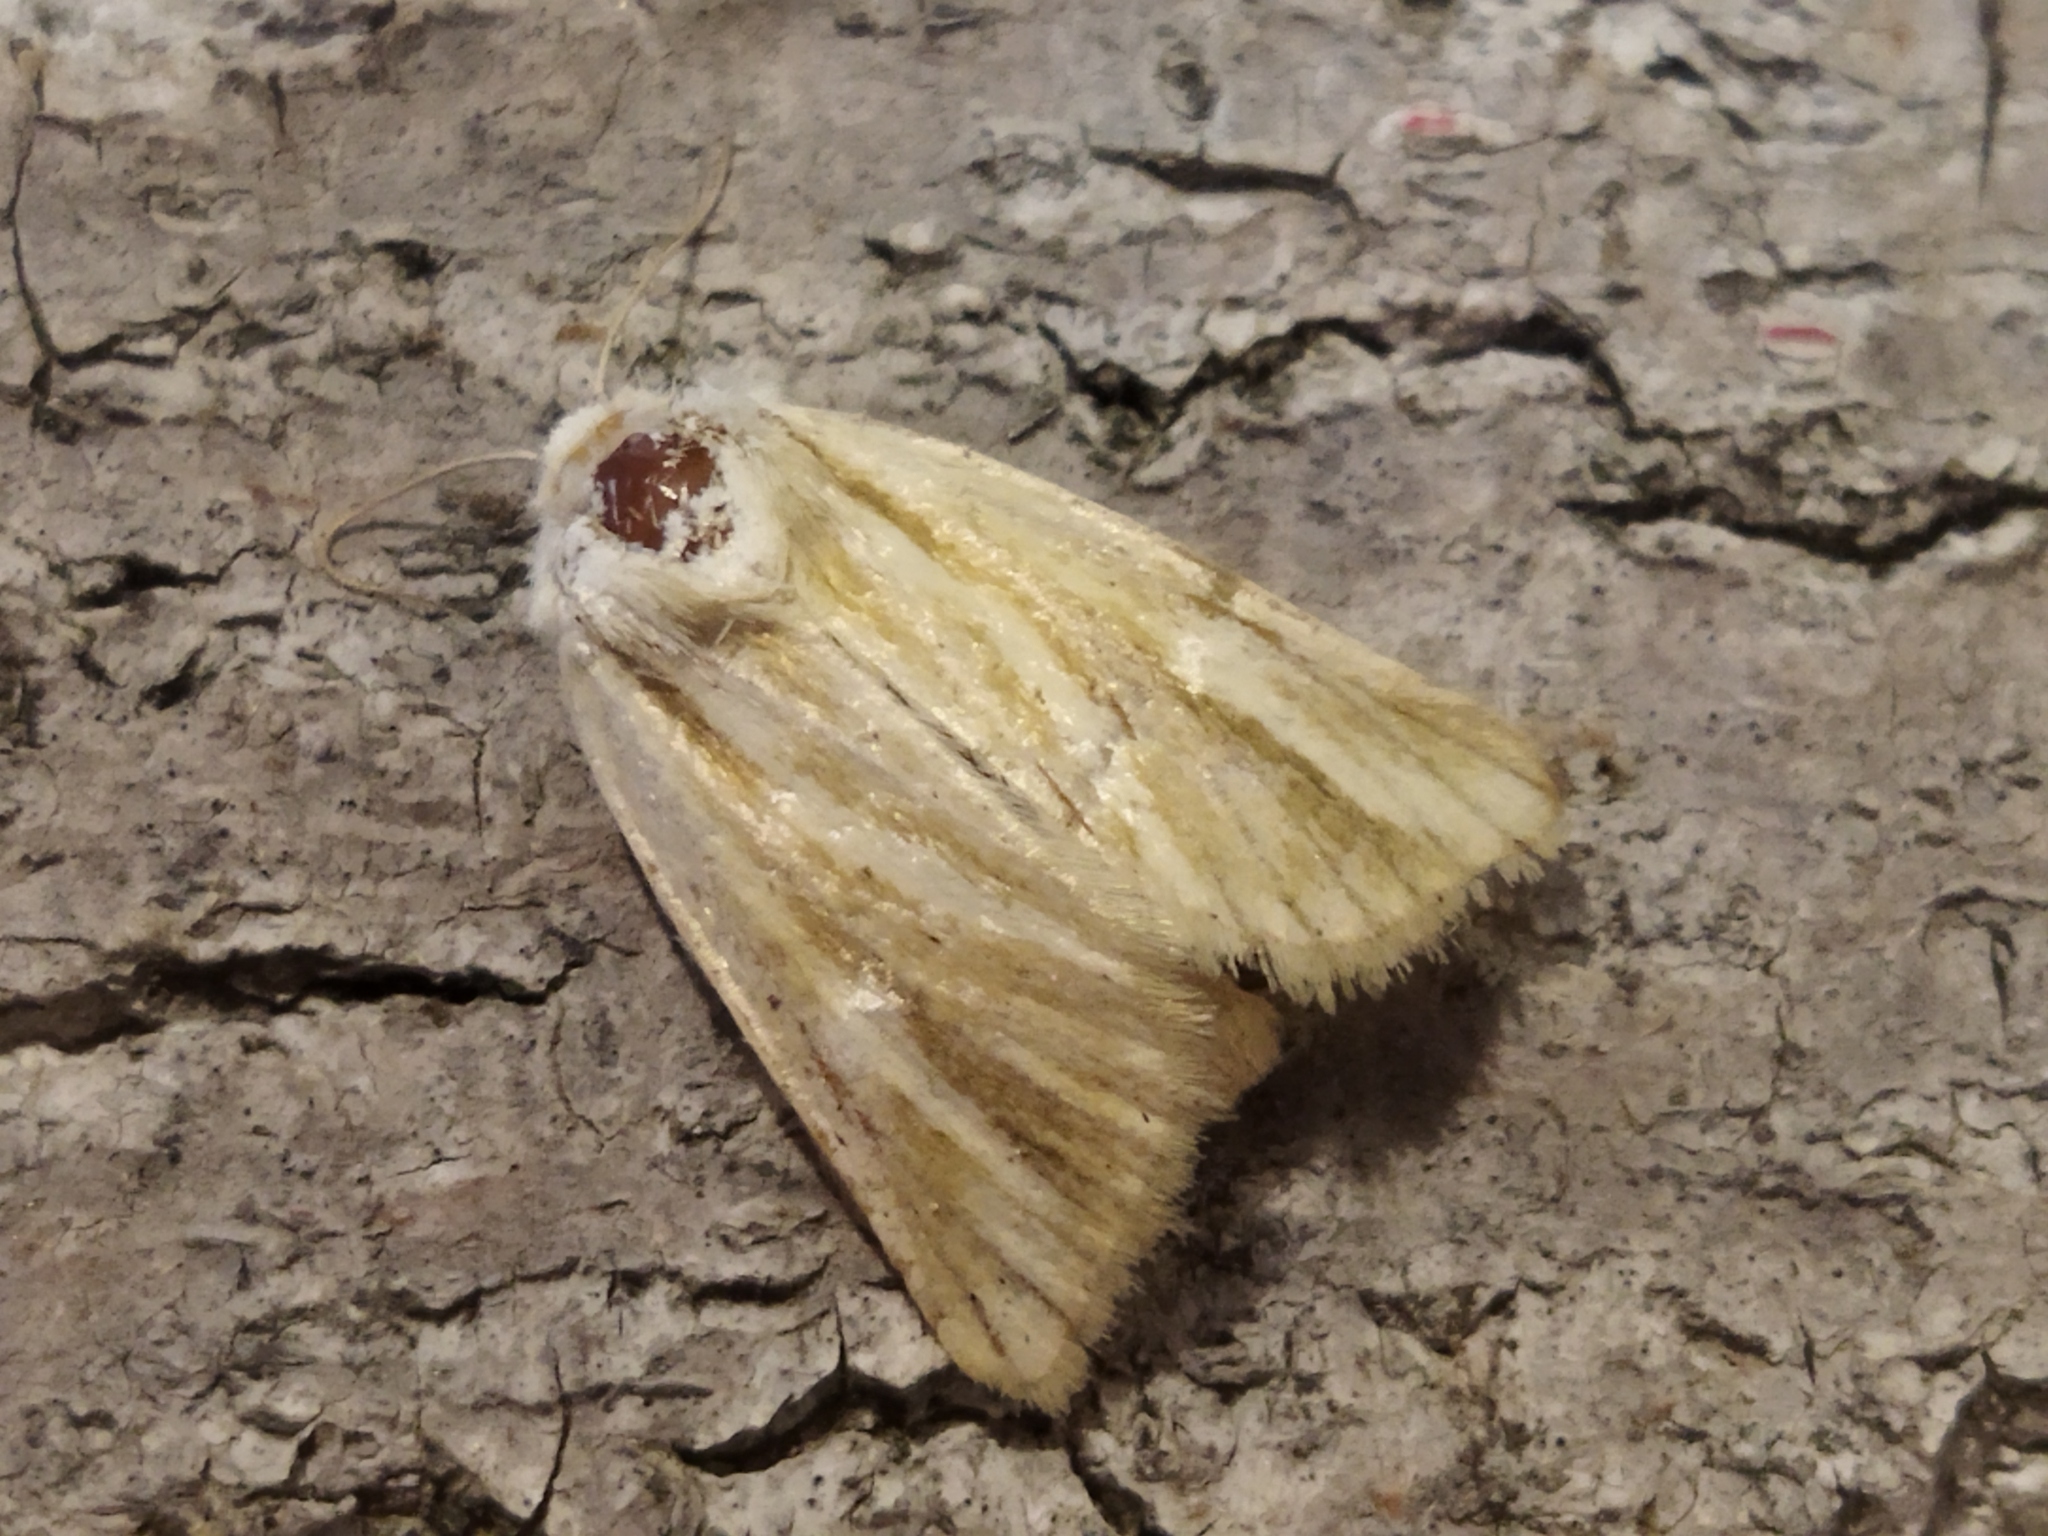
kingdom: Animalia
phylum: Arthropoda
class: Insecta
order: Lepidoptera
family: Noctuidae
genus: Oria
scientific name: Oria musculosa
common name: Brighton wainscot
